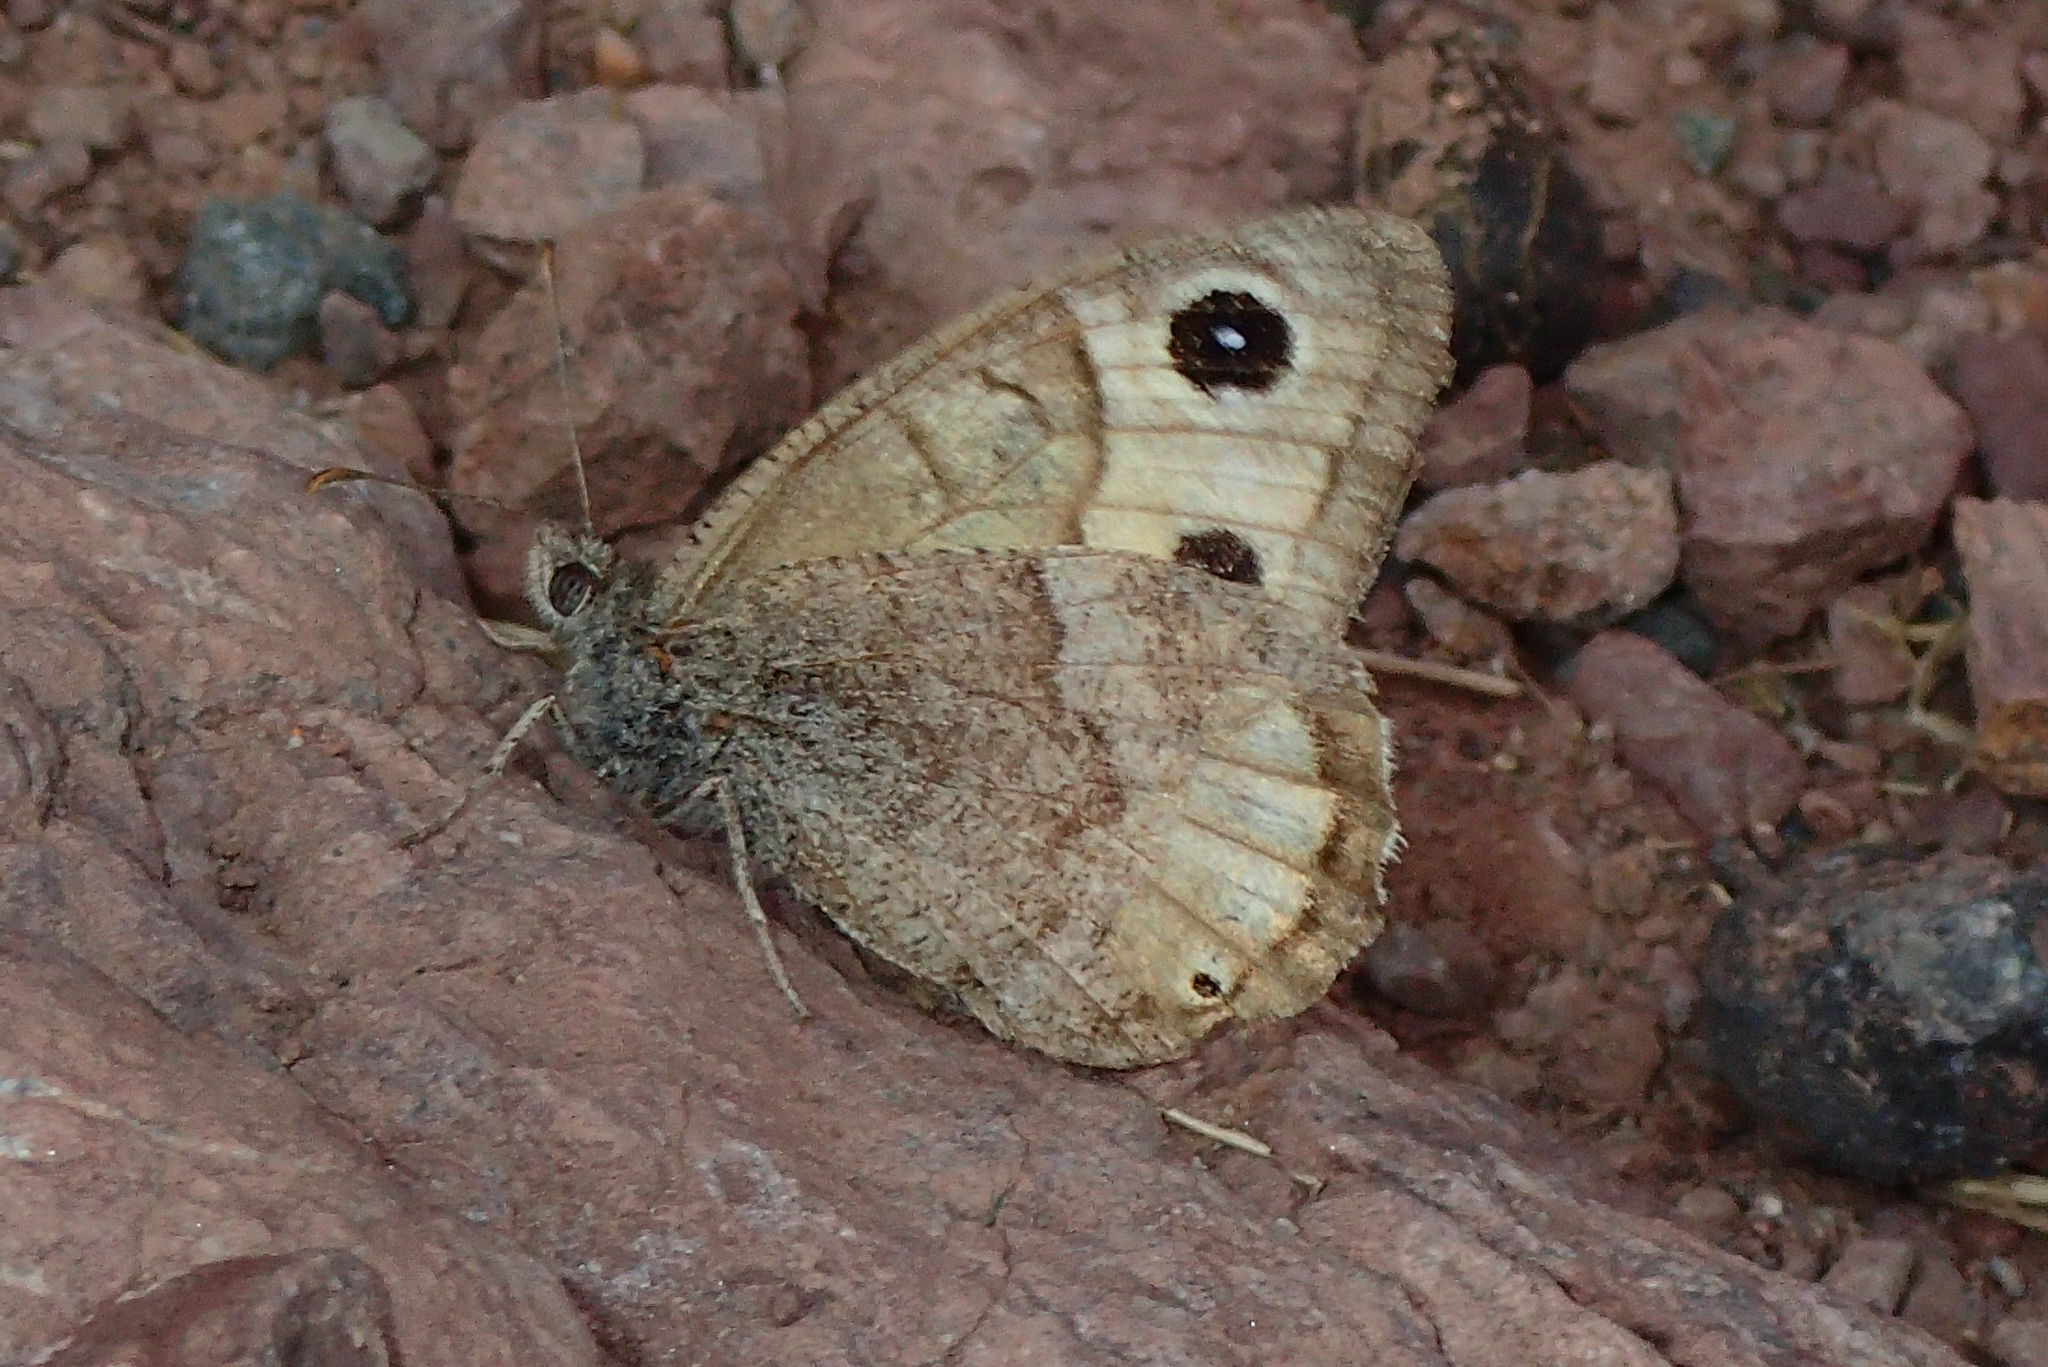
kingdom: Animalia
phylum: Arthropoda
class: Insecta
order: Lepidoptera
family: Nymphalidae
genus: Hipparchia
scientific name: Hipparchia hansii
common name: Austaut's grayling
